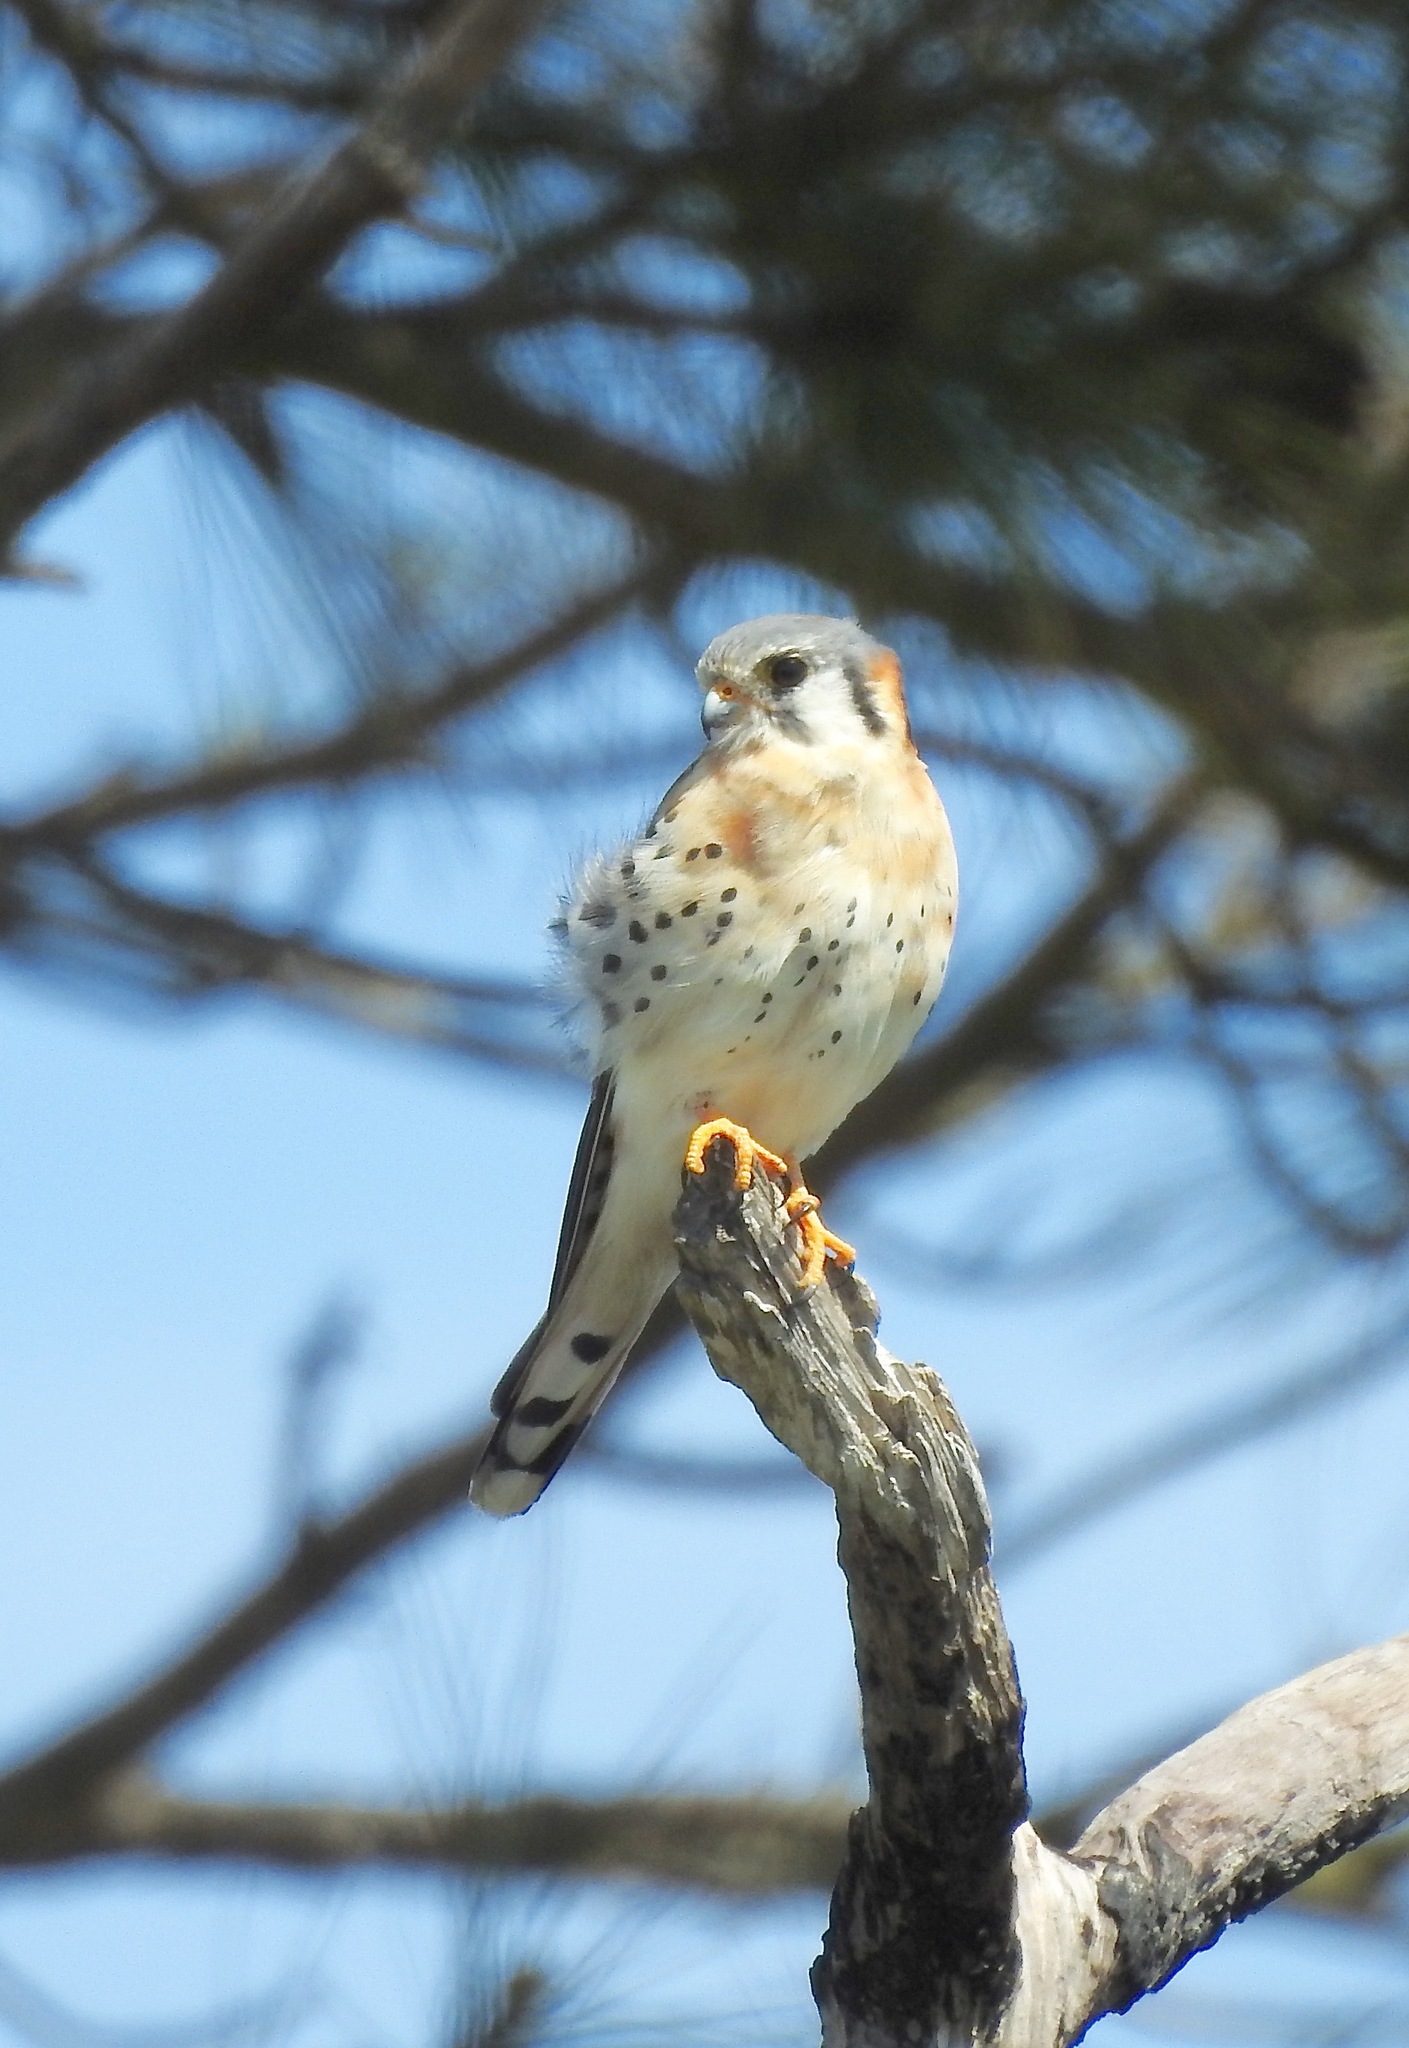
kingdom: Animalia
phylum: Chordata
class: Aves
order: Falconiformes
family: Falconidae
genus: Falco
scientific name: Falco sparverius
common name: American kestrel
